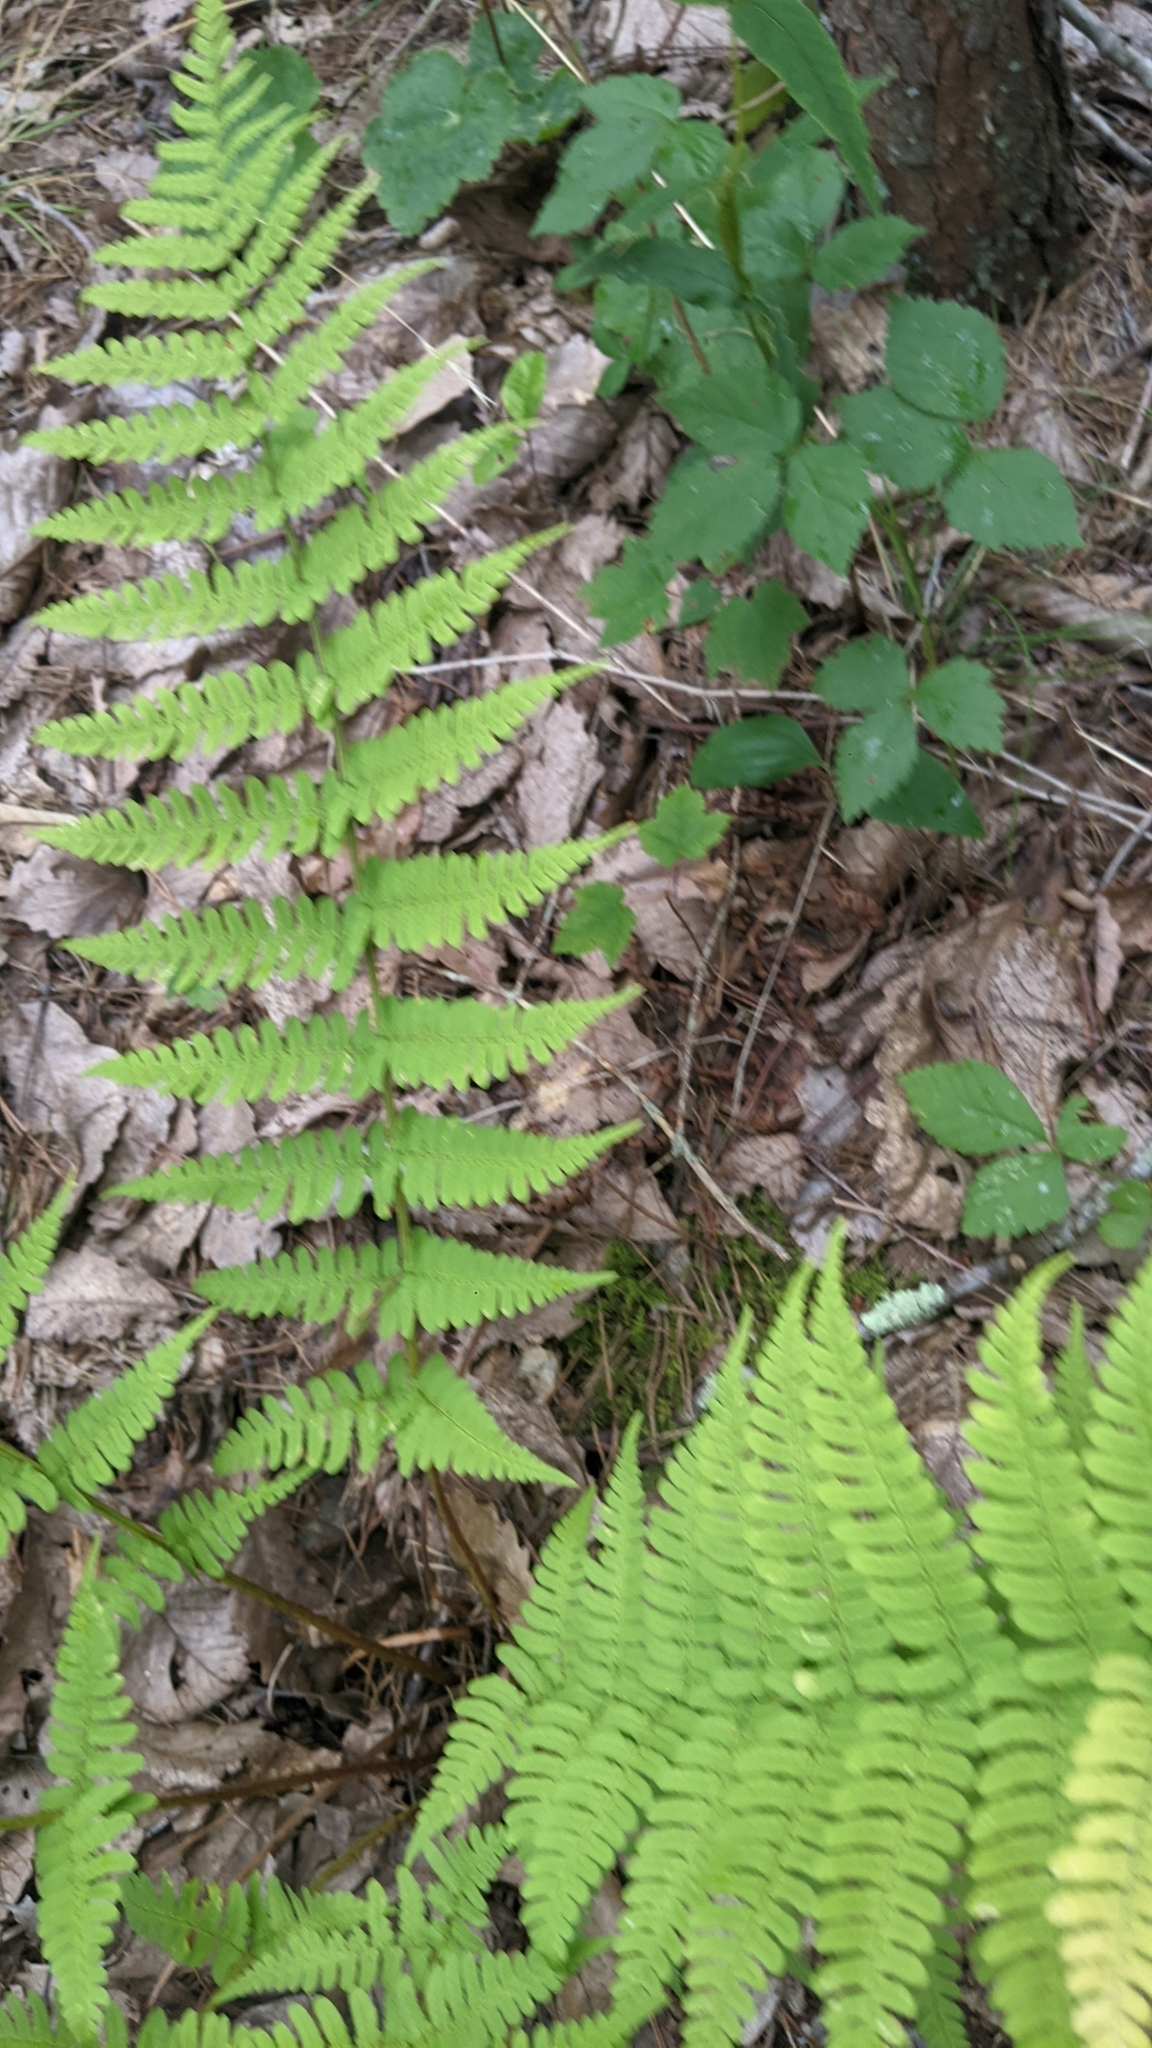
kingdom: Plantae
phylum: Tracheophyta
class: Polypodiopsida
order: Polypodiales
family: Dryopteridaceae
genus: Dryopteris
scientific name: Dryopteris marginalis
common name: Marginal wood fern
